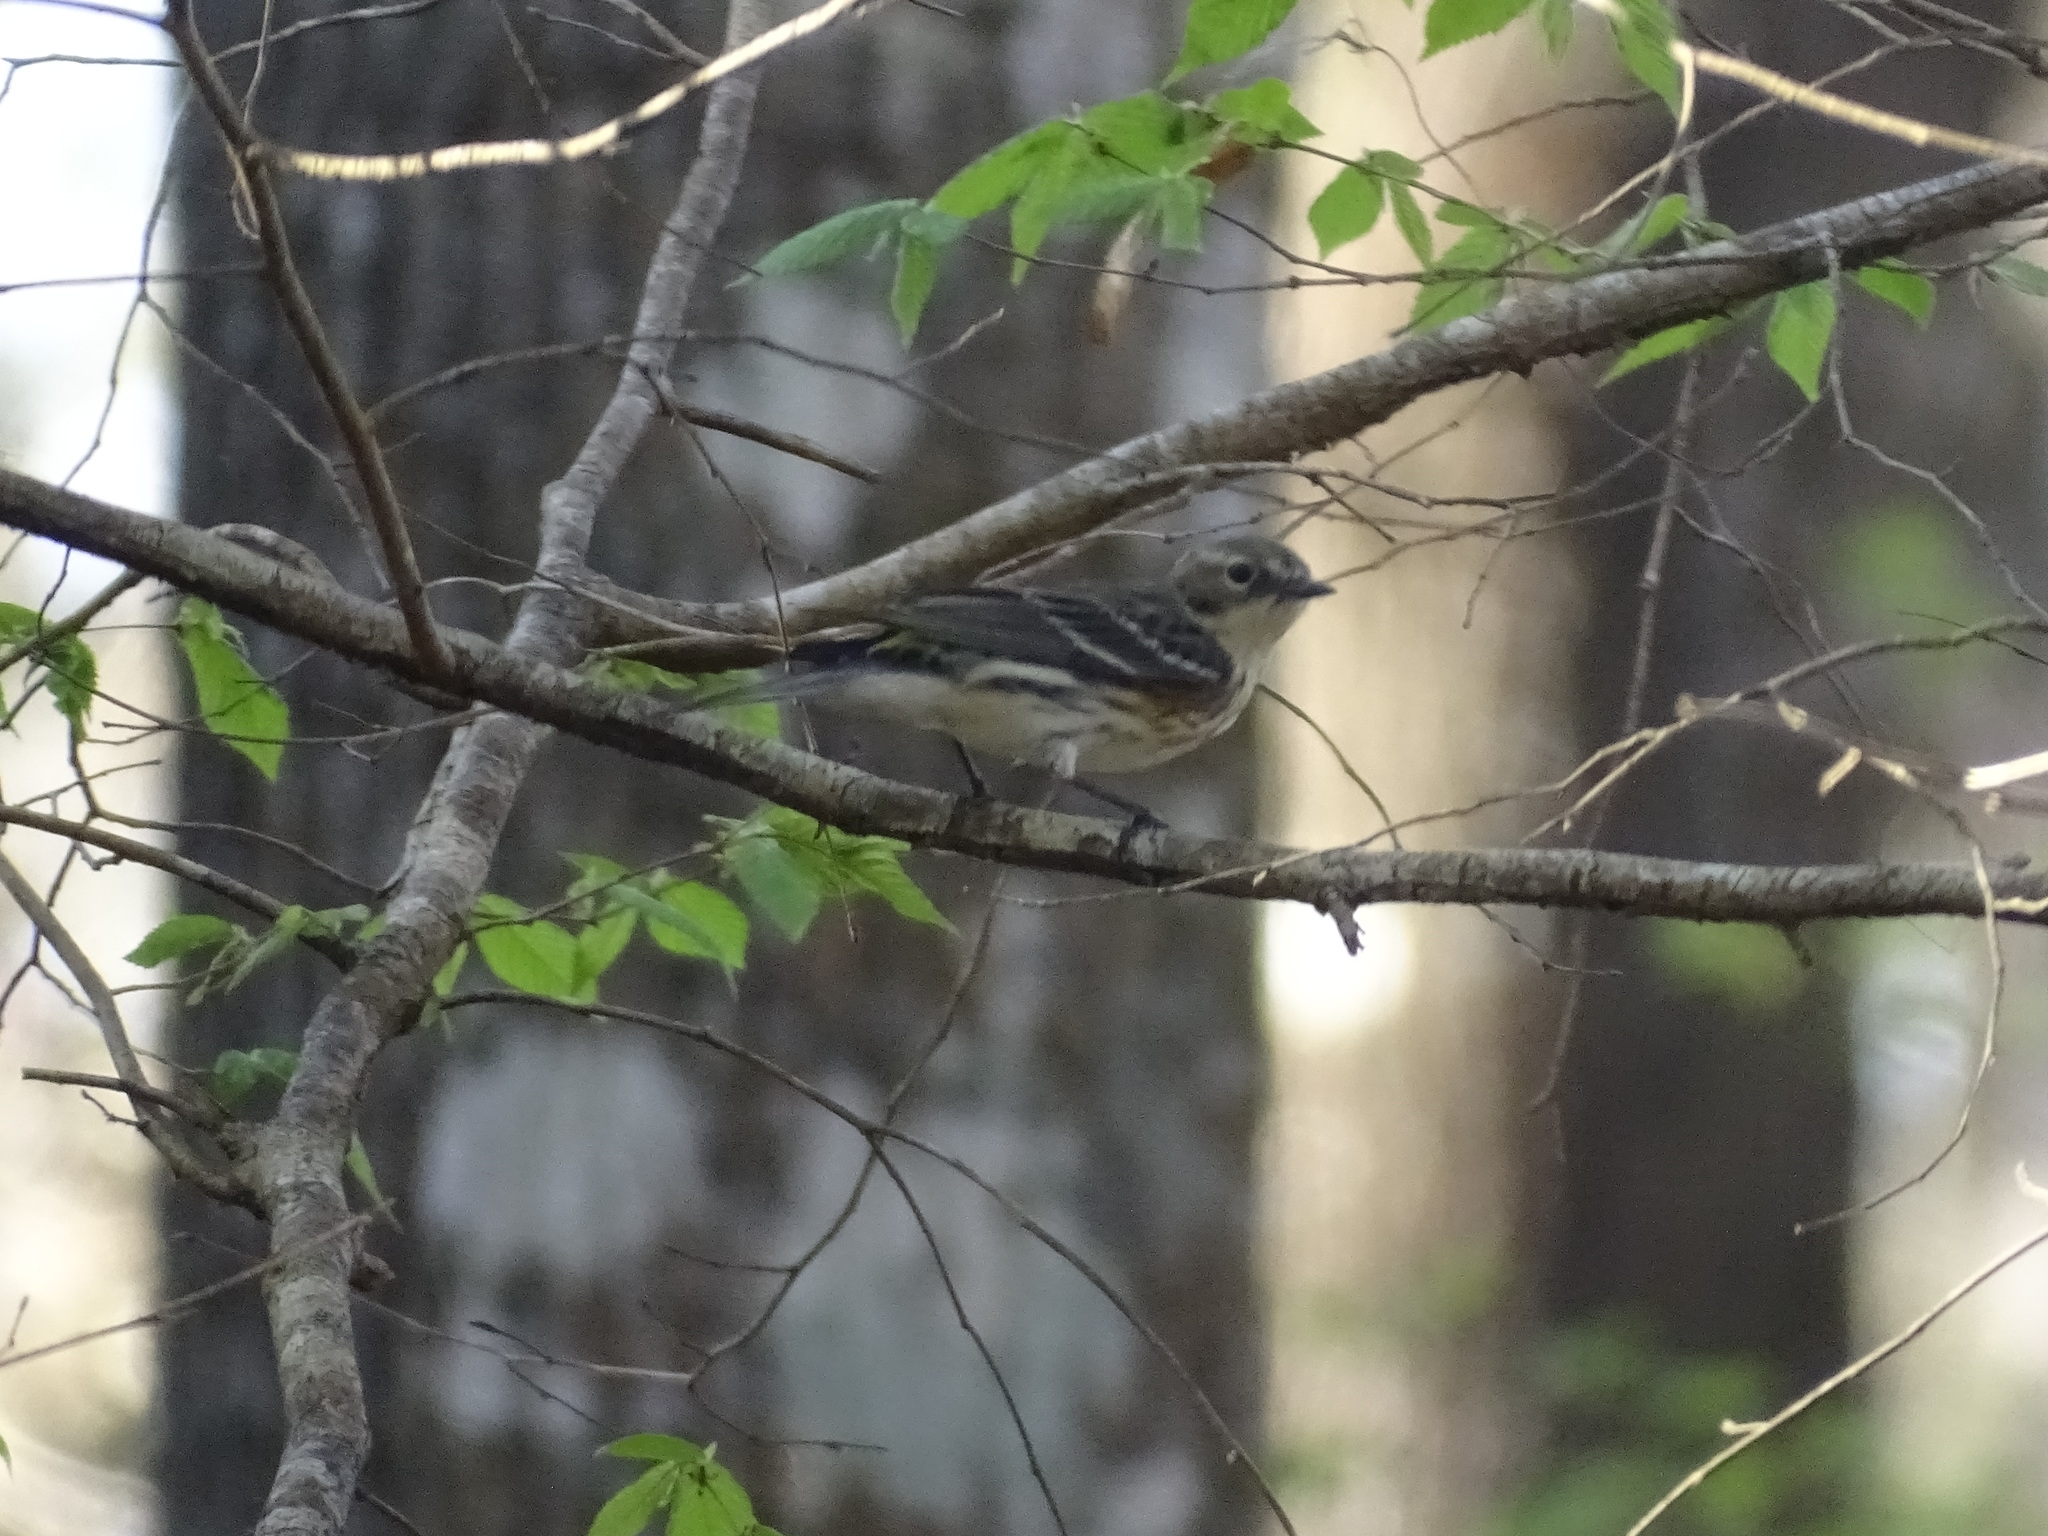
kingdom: Animalia
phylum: Chordata
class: Aves
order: Passeriformes
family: Parulidae
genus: Setophaga
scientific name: Setophaga coronata
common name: Myrtle warbler
